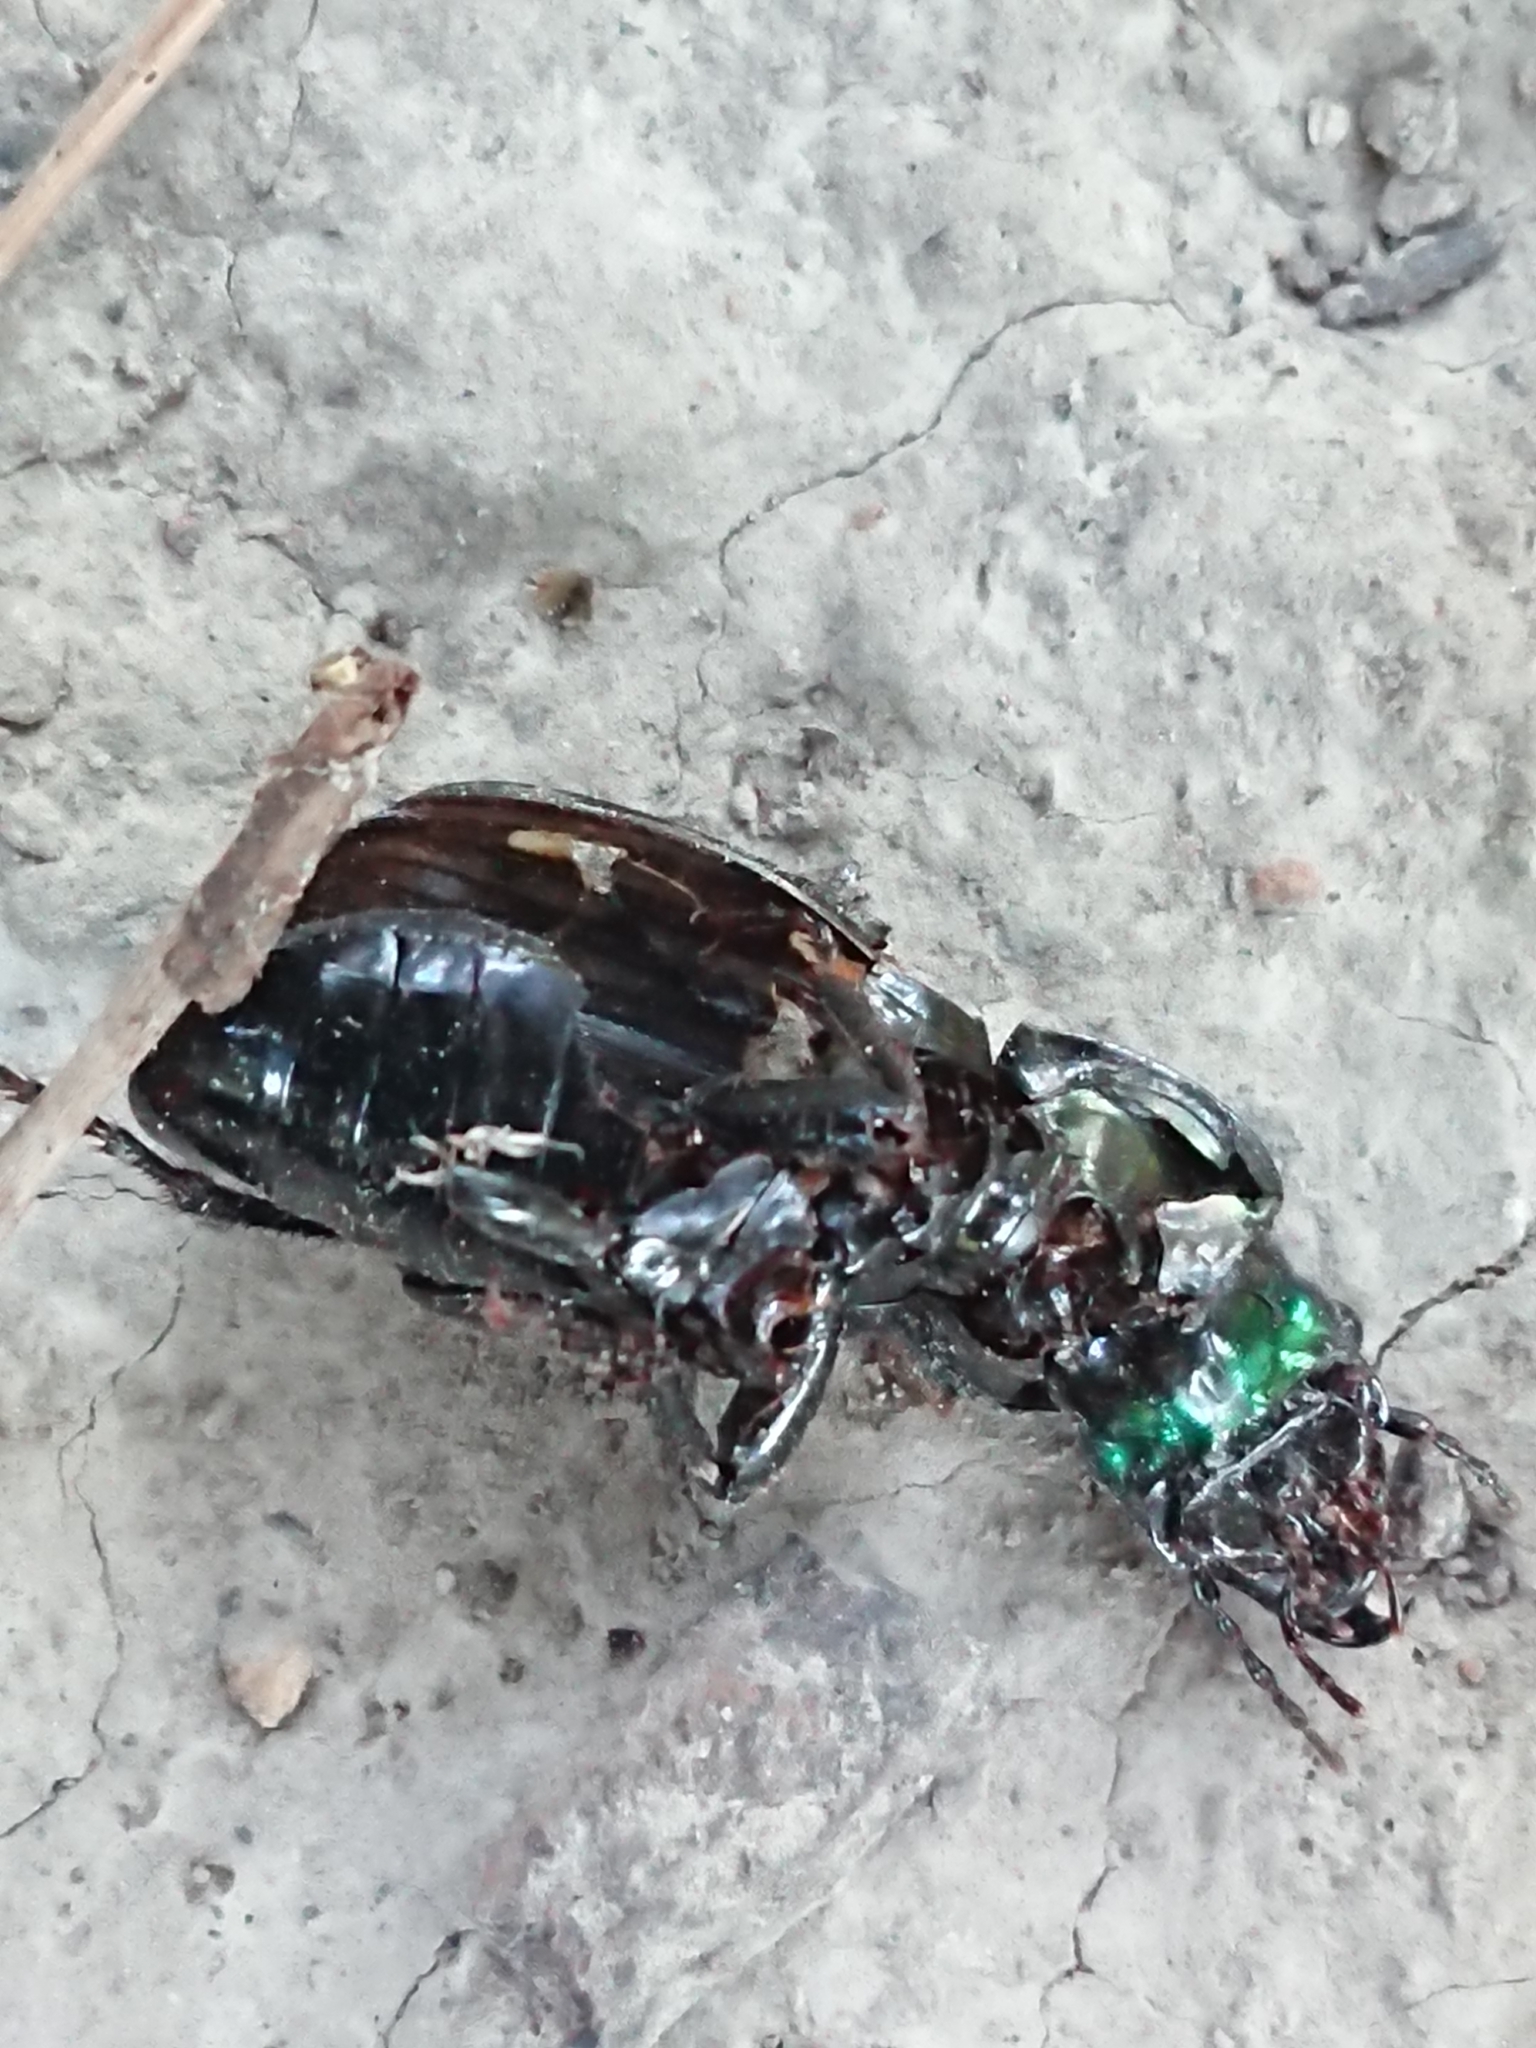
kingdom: Animalia
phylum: Arthropoda
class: Insecta
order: Coleoptera
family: Carabidae
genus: Megadromus
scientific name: Megadromus antarcticus
